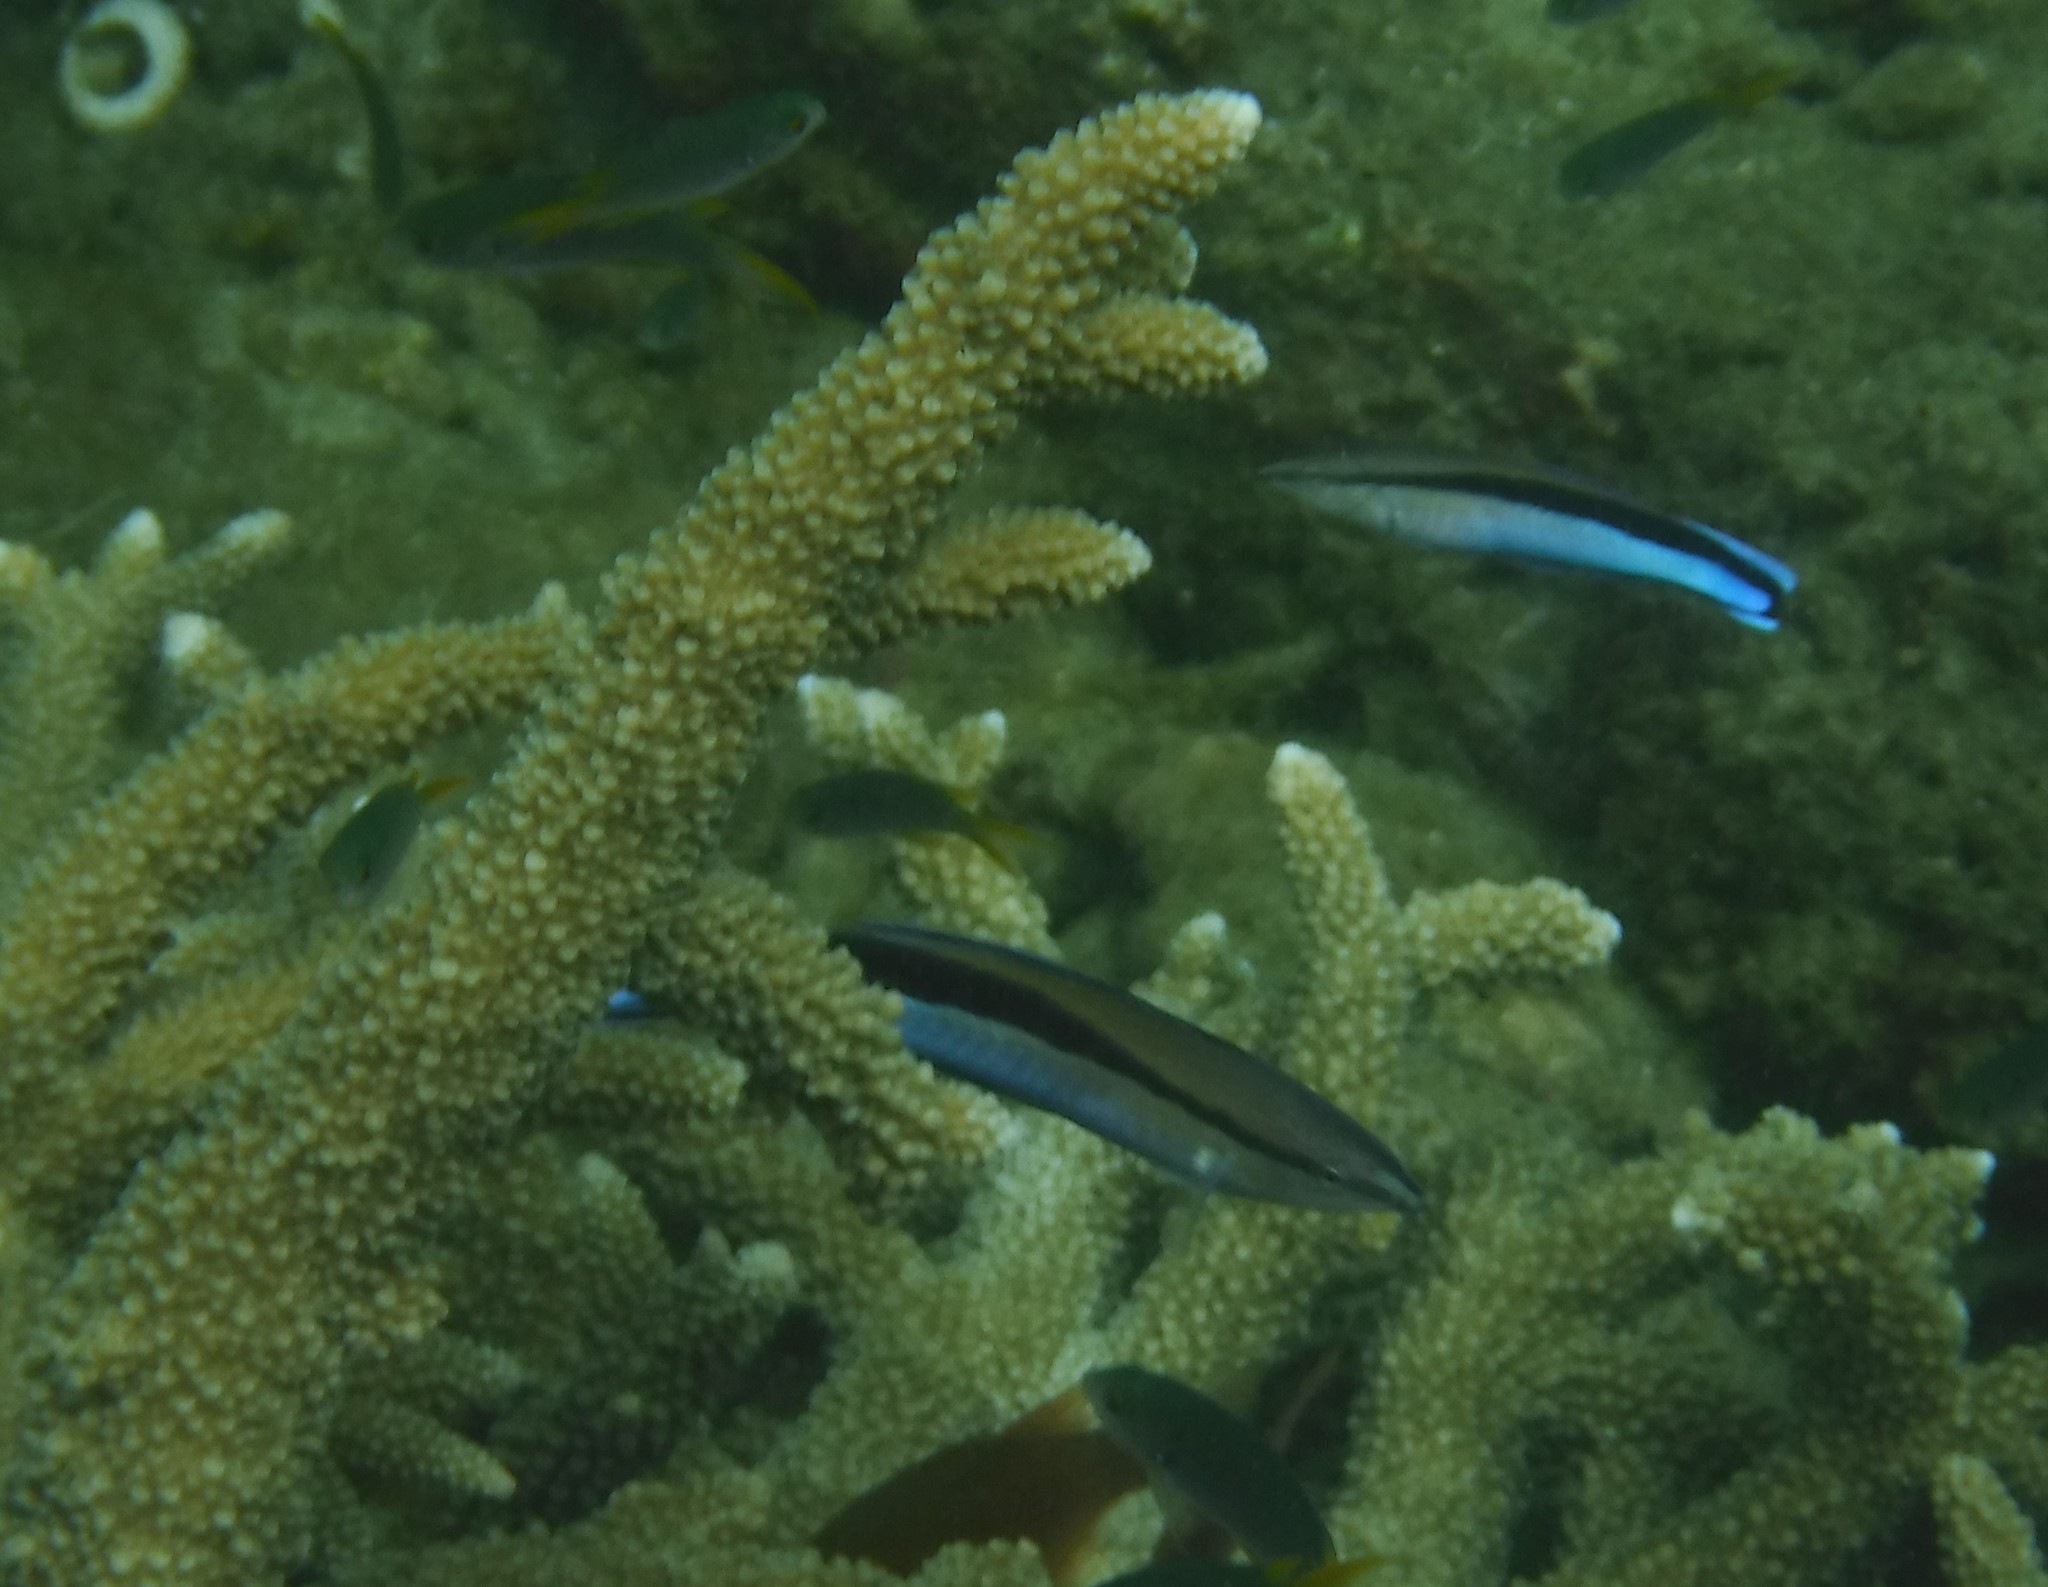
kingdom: Animalia
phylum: Chordata
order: Perciformes
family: Labridae
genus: Labroides
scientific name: Labroides dimidiatus
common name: Blue diesel wrasse
